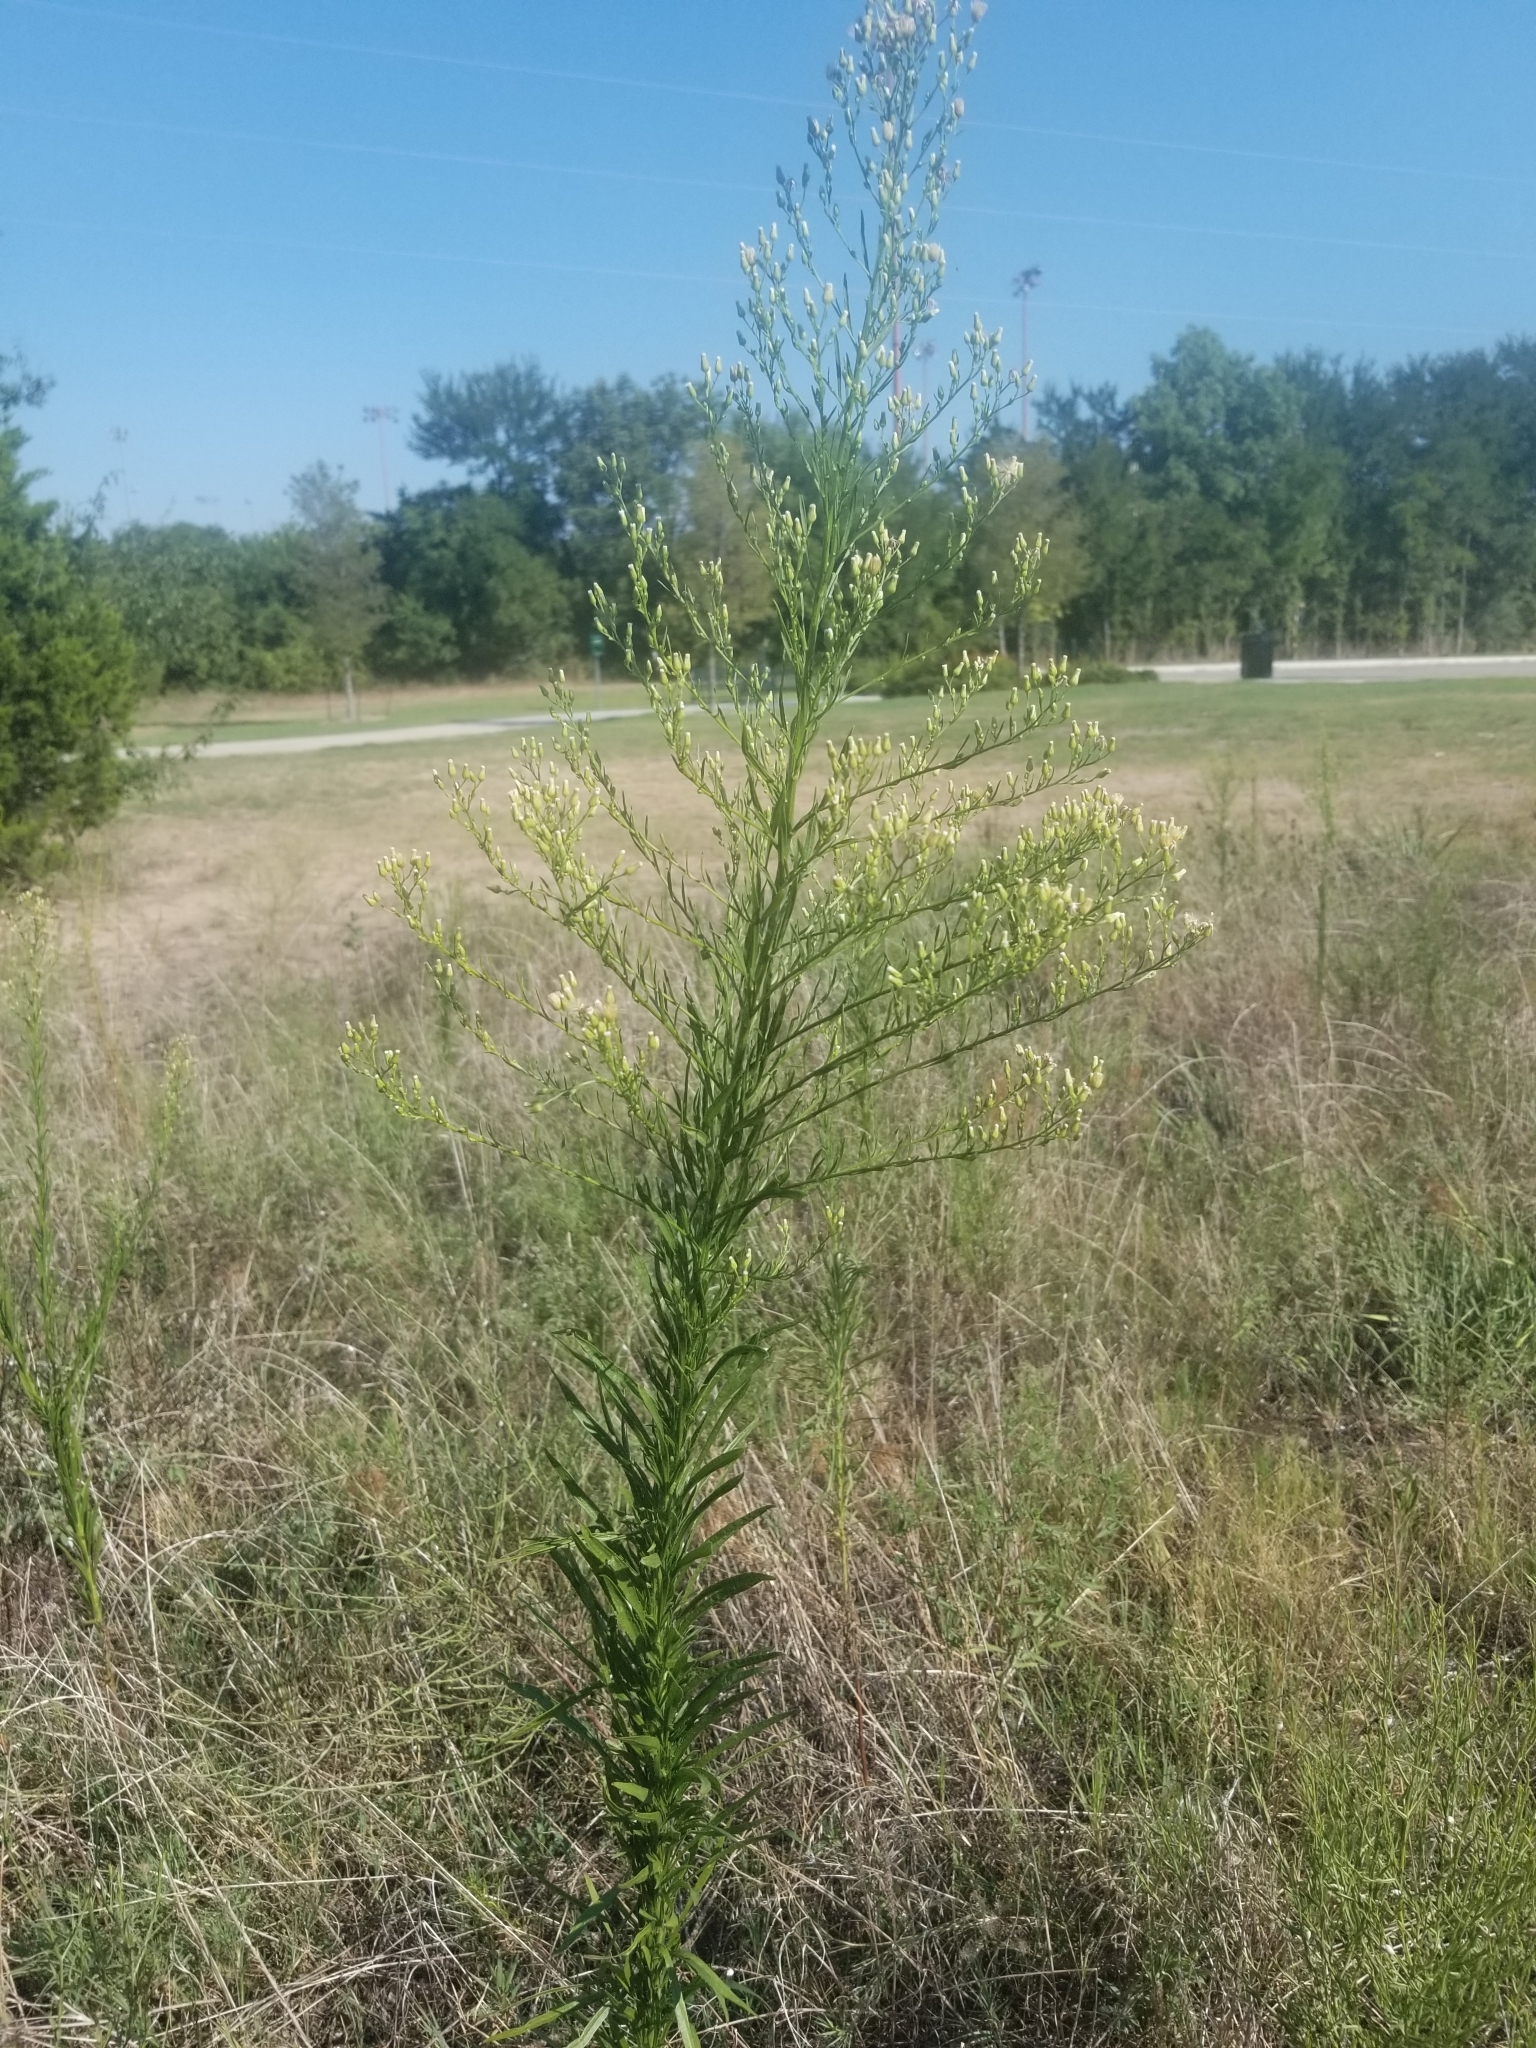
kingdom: Plantae
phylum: Tracheophyta
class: Magnoliopsida
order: Asterales
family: Asteraceae
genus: Erigeron
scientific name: Erigeron canadensis
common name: Canadian fleabane
